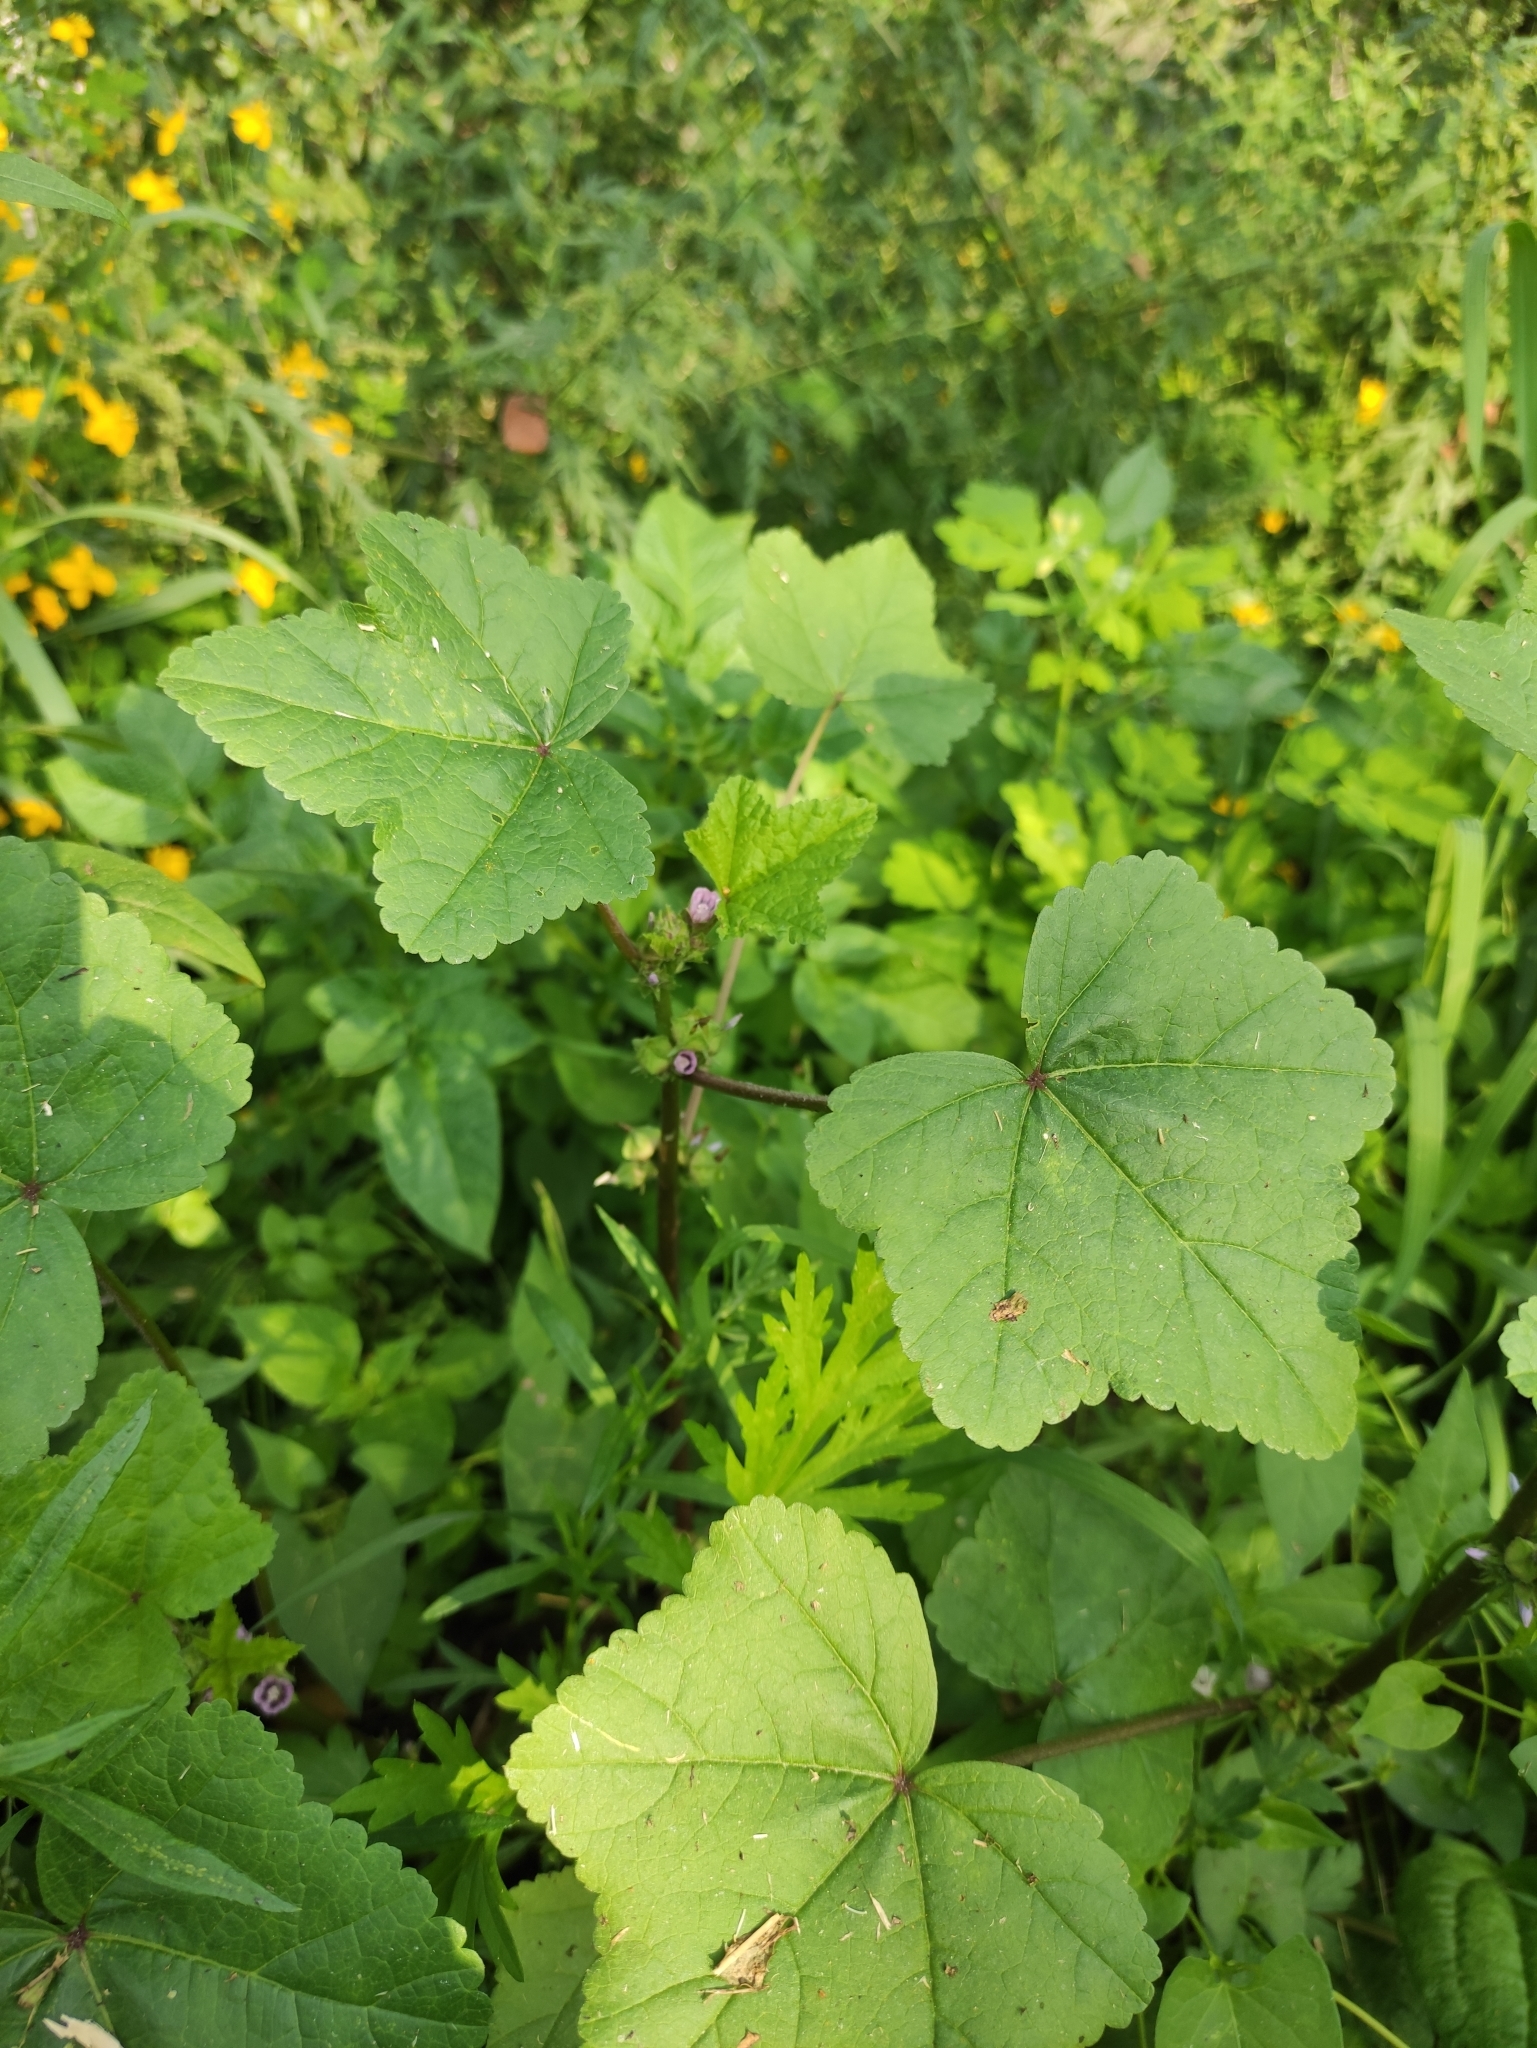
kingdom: Plantae
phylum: Tracheophyta
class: Magnoliopsida
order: Malvales
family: Malvaceae
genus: Malva
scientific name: Malva verticillata
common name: Chinese mallow
